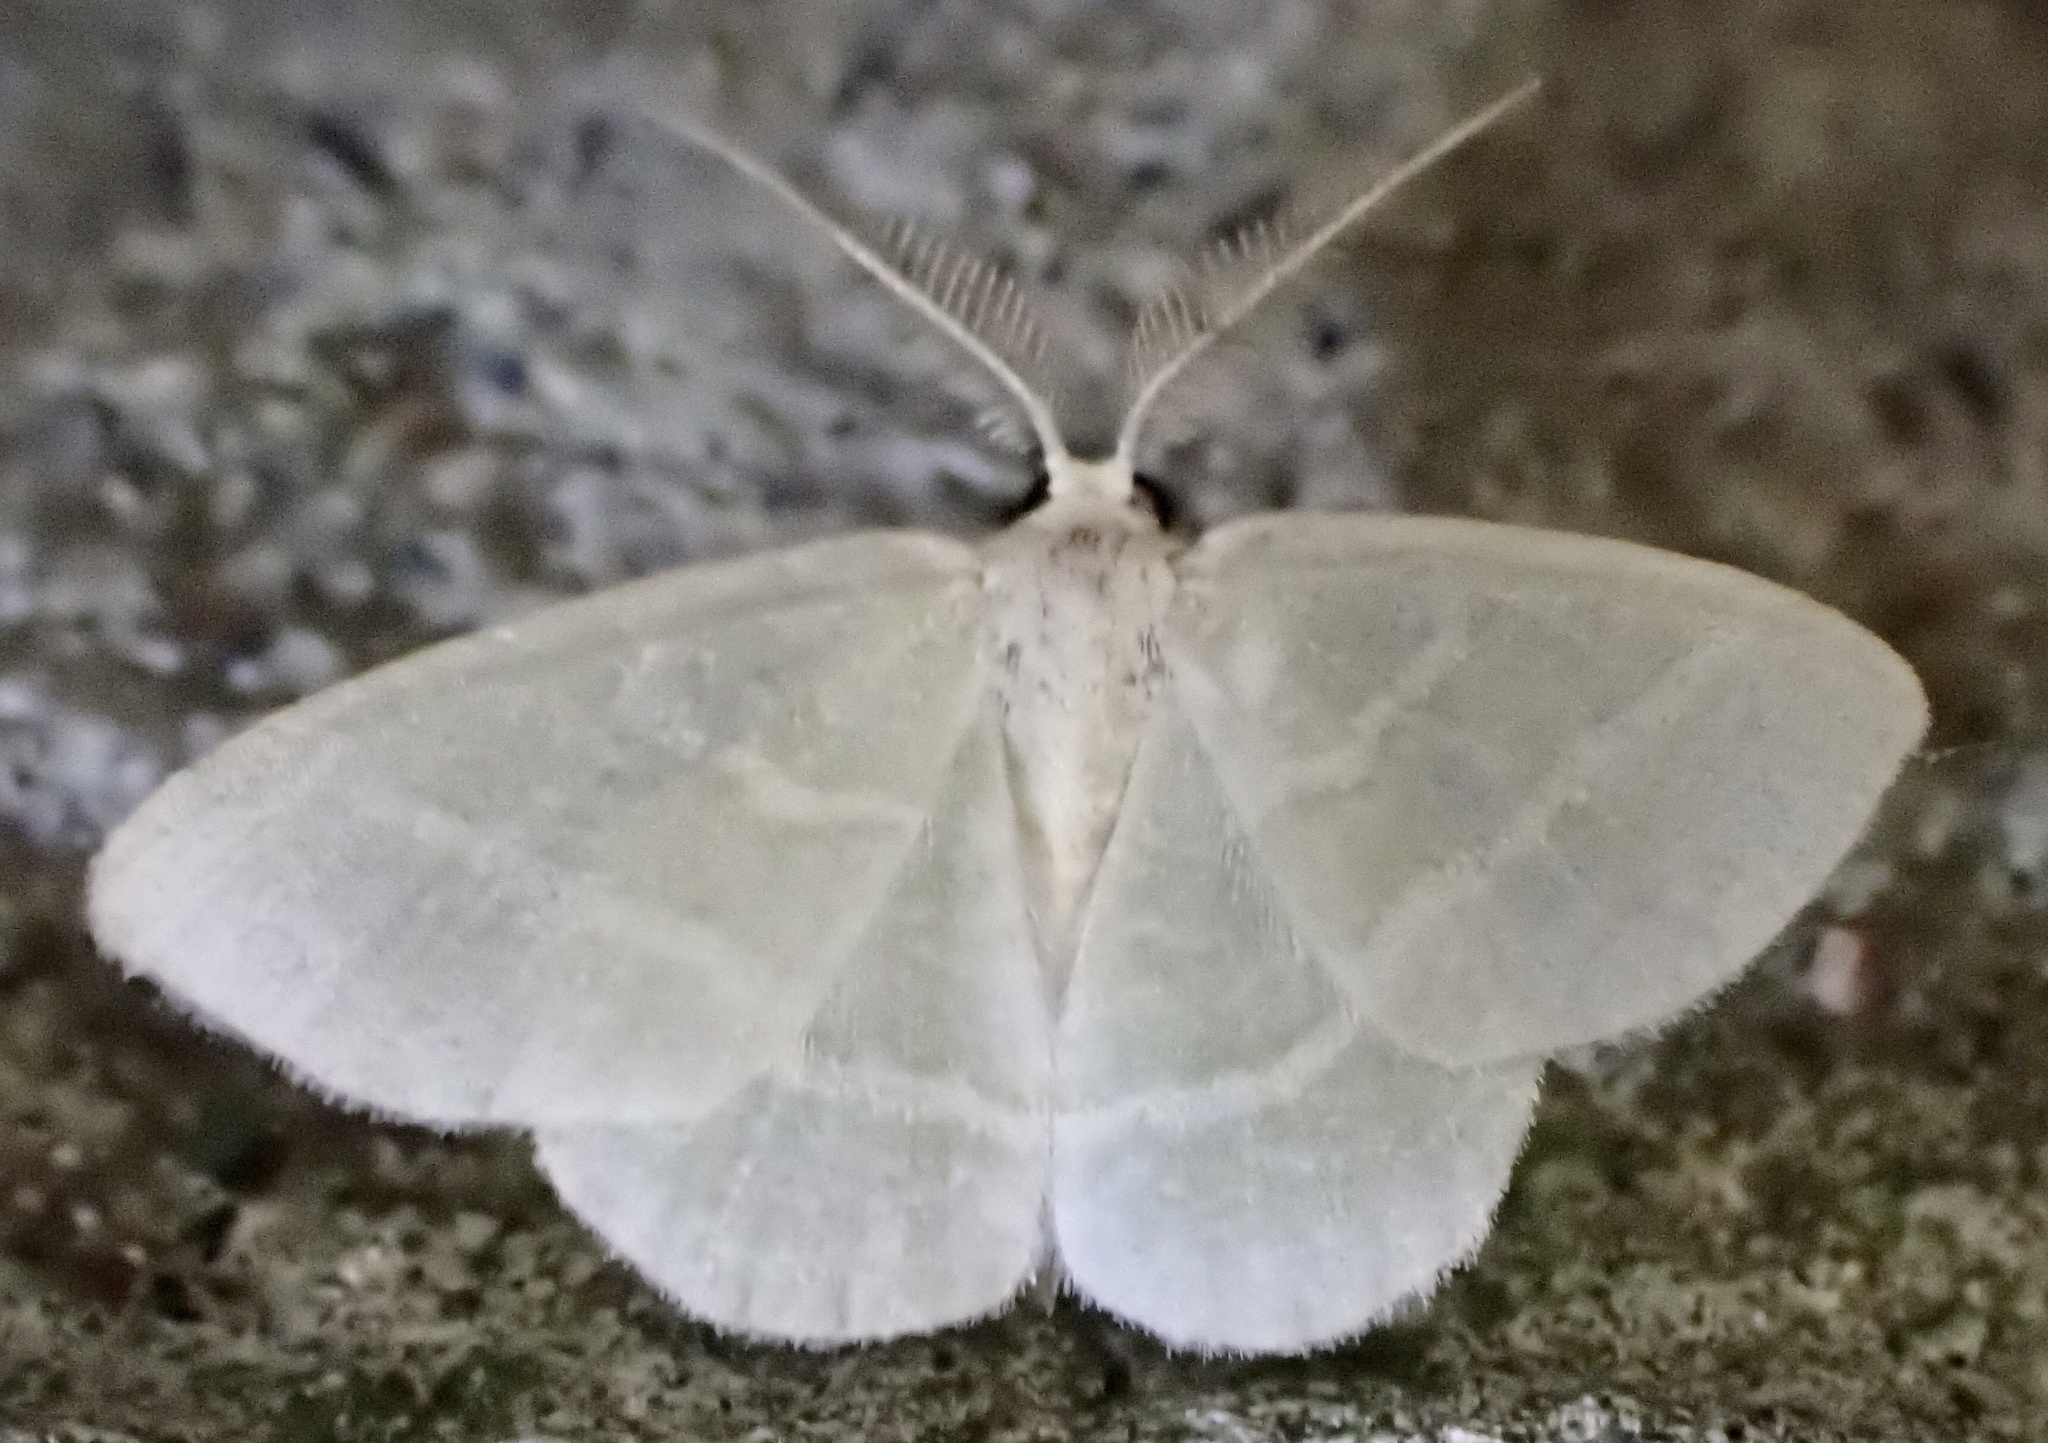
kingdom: Animalia
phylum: Arthropoda
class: Insecta
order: Lepidoptera
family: Geometridae
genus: Chlorochlamys
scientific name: Chlorochlamys chloroleucaria
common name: Blackberry looper
